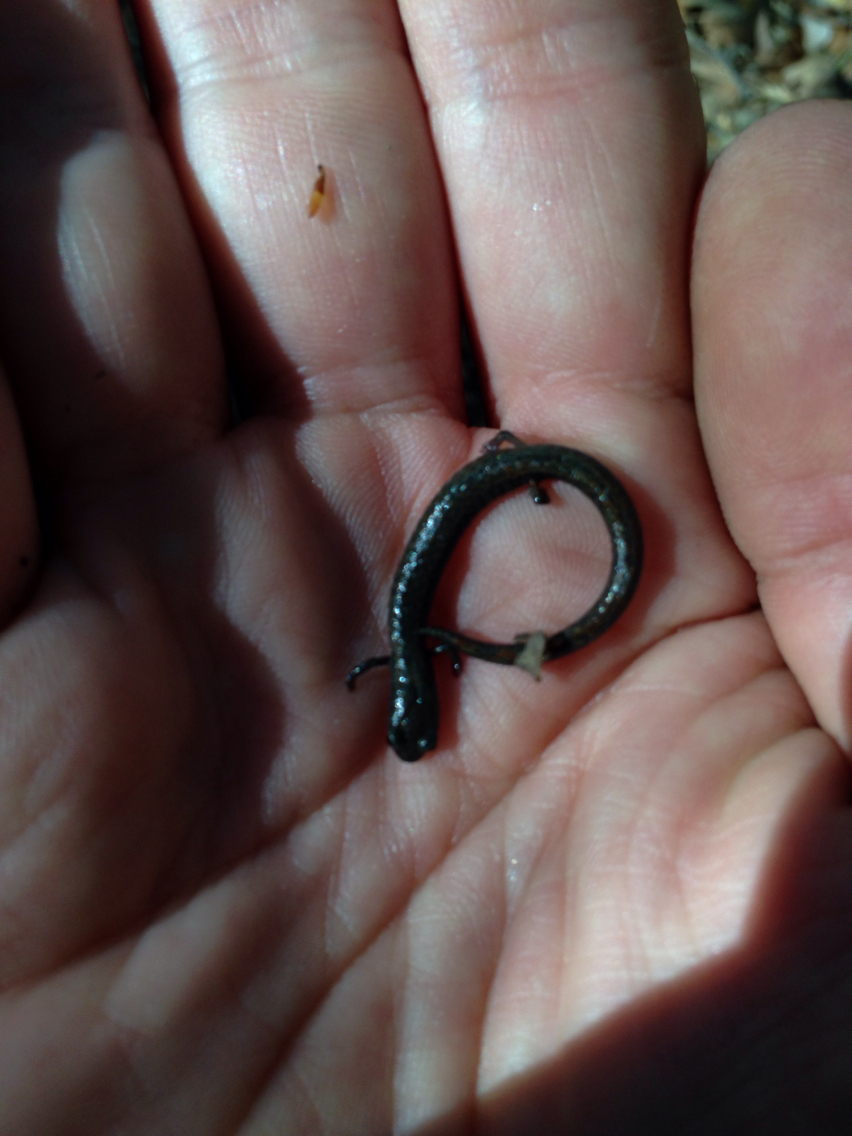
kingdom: Animalia
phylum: Chordata
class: Amphibia
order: Caudata
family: Plethodontidae
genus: Batrachoseps
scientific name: Batrachoseps attenuatus
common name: California slender salamander
